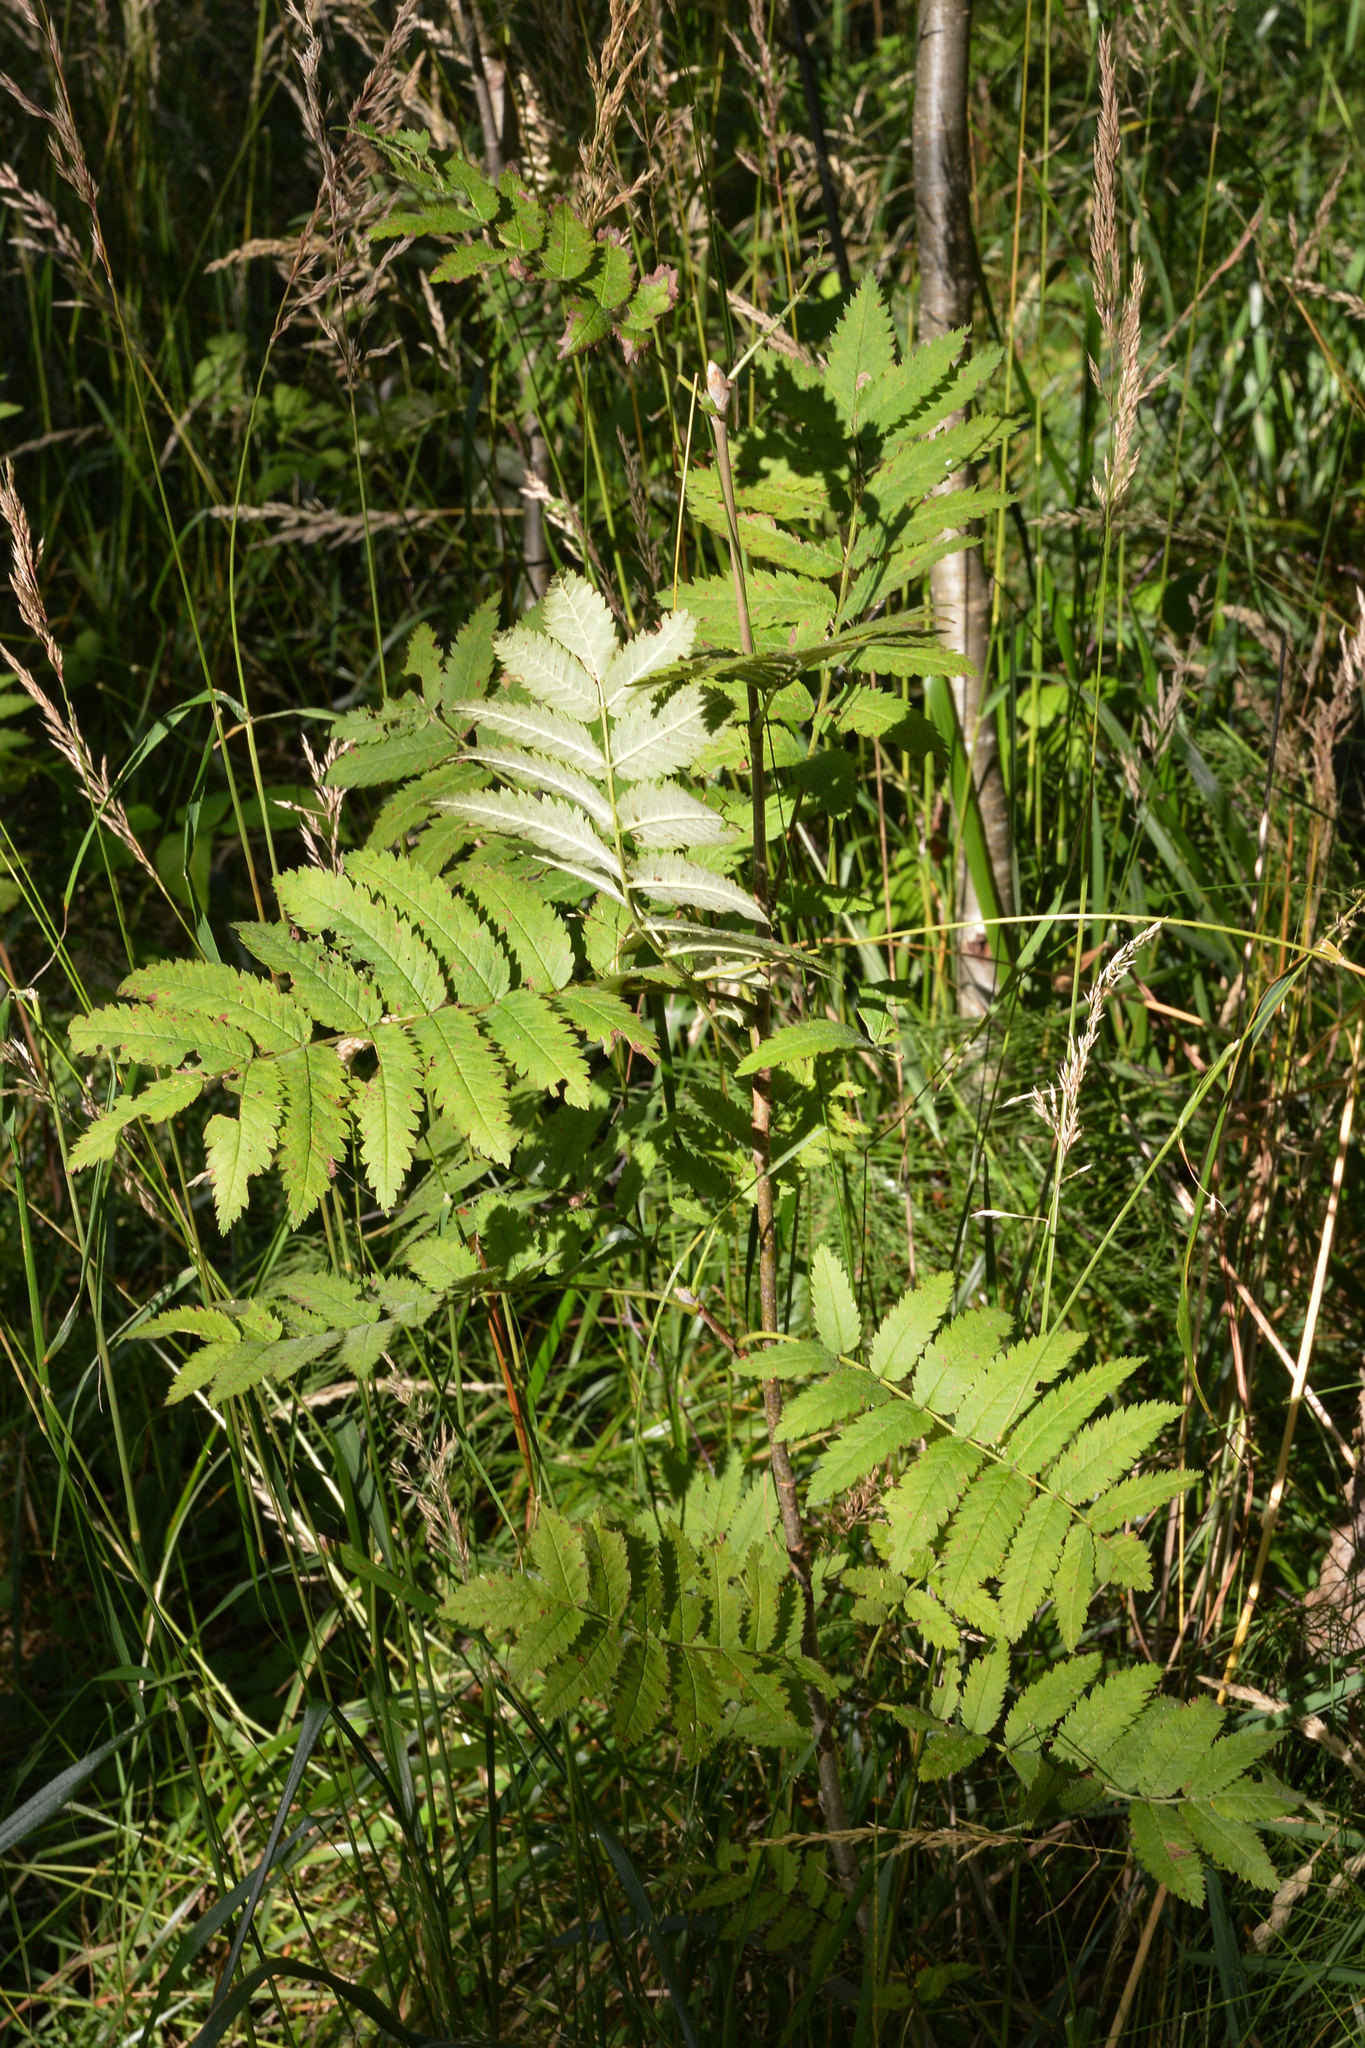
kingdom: Plantae
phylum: Tracheophyta
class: Magnoliopsida
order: Rosales
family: Rosaceae
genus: Sorbus
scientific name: Sorbus aucuparia
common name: Rowan
